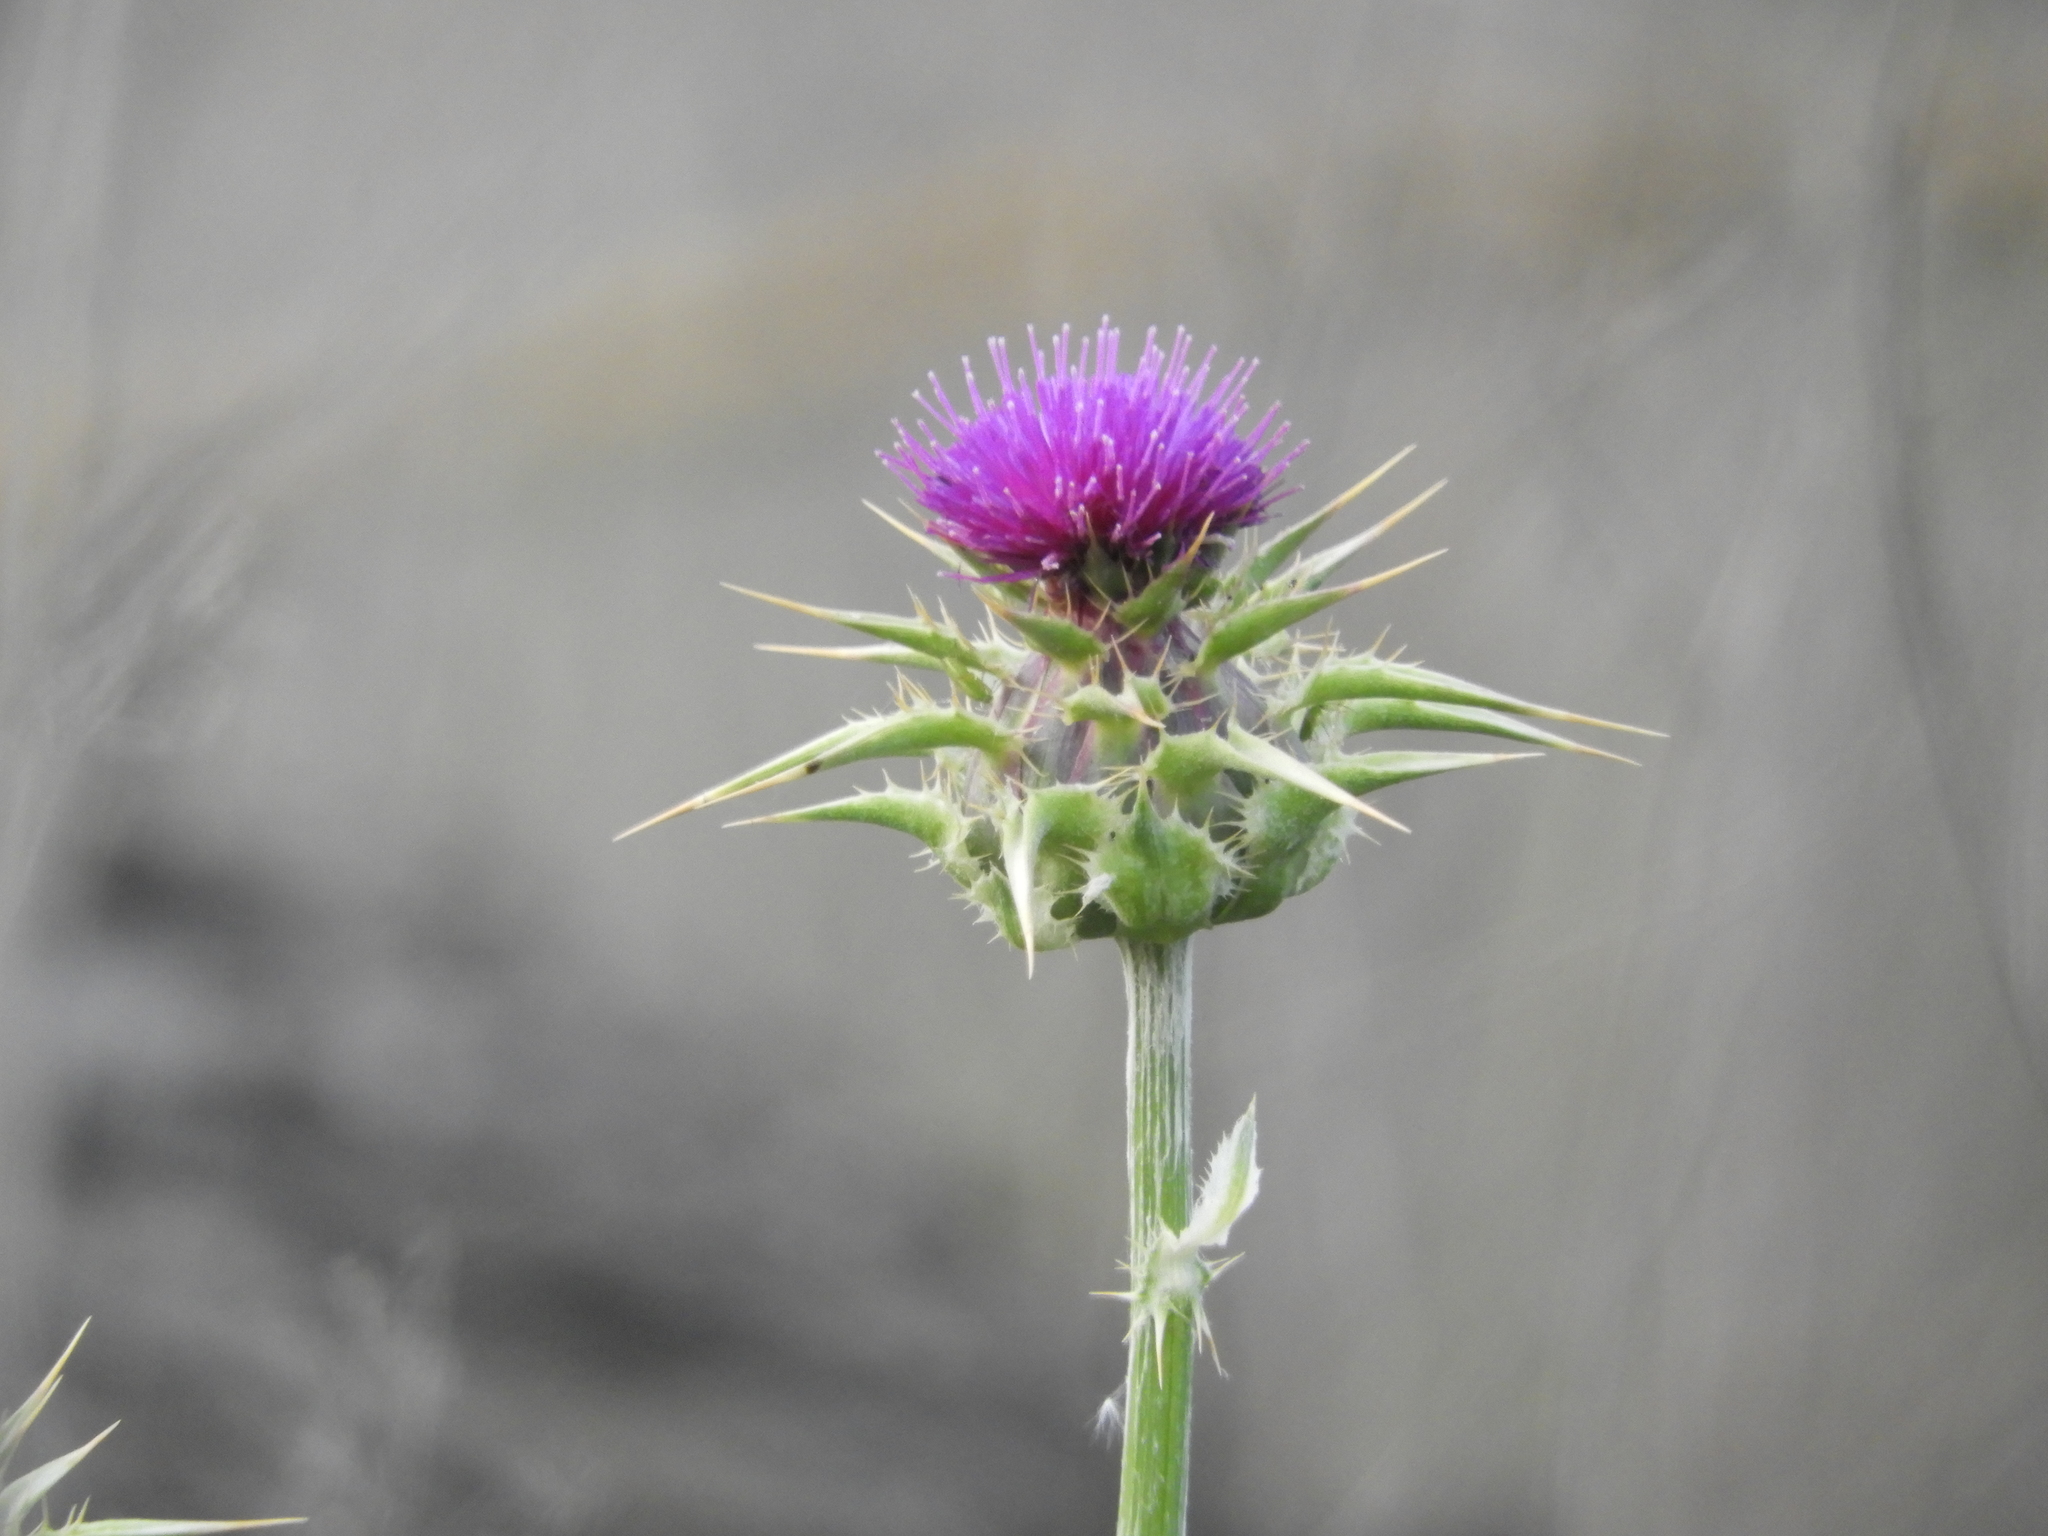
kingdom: Plantae
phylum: Tracheophyta
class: Magnoliopsida
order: Asterales
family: Asteraceae
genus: Silybum
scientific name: Silybum marianum
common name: Milk thistle
